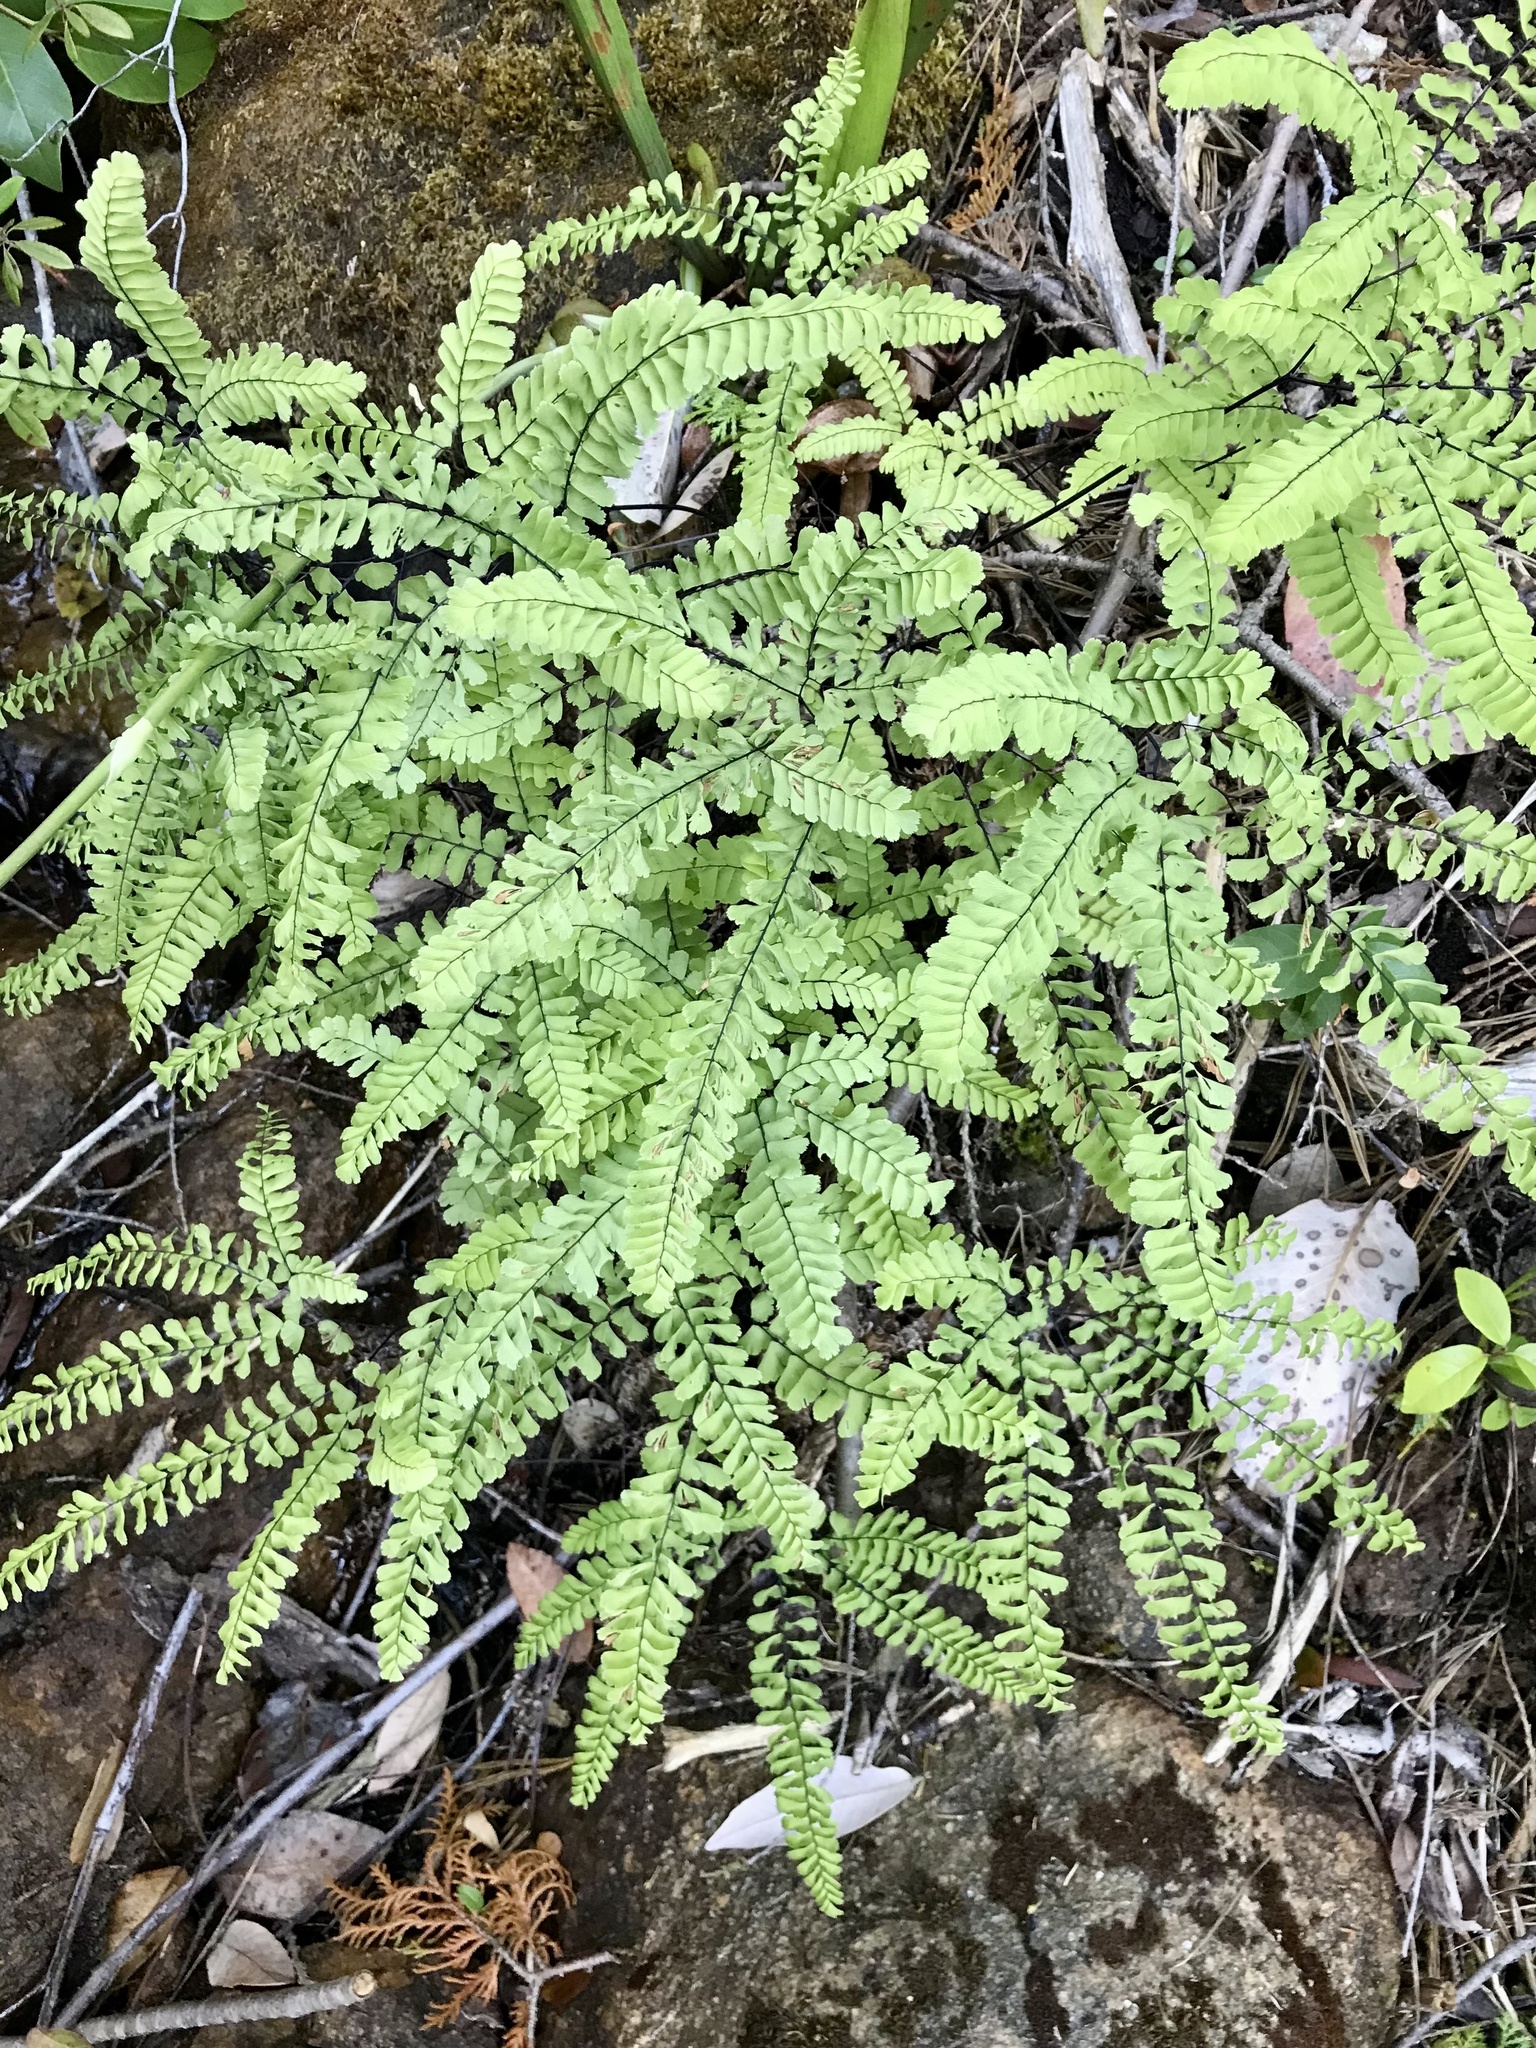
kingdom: Plantae
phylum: Tracheophyta
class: Polypodiopsida
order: Polypodiales
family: Pteridaceae
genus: Adiantum
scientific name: Adiantum aleuticum
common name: Aleutian maidenhair fern
